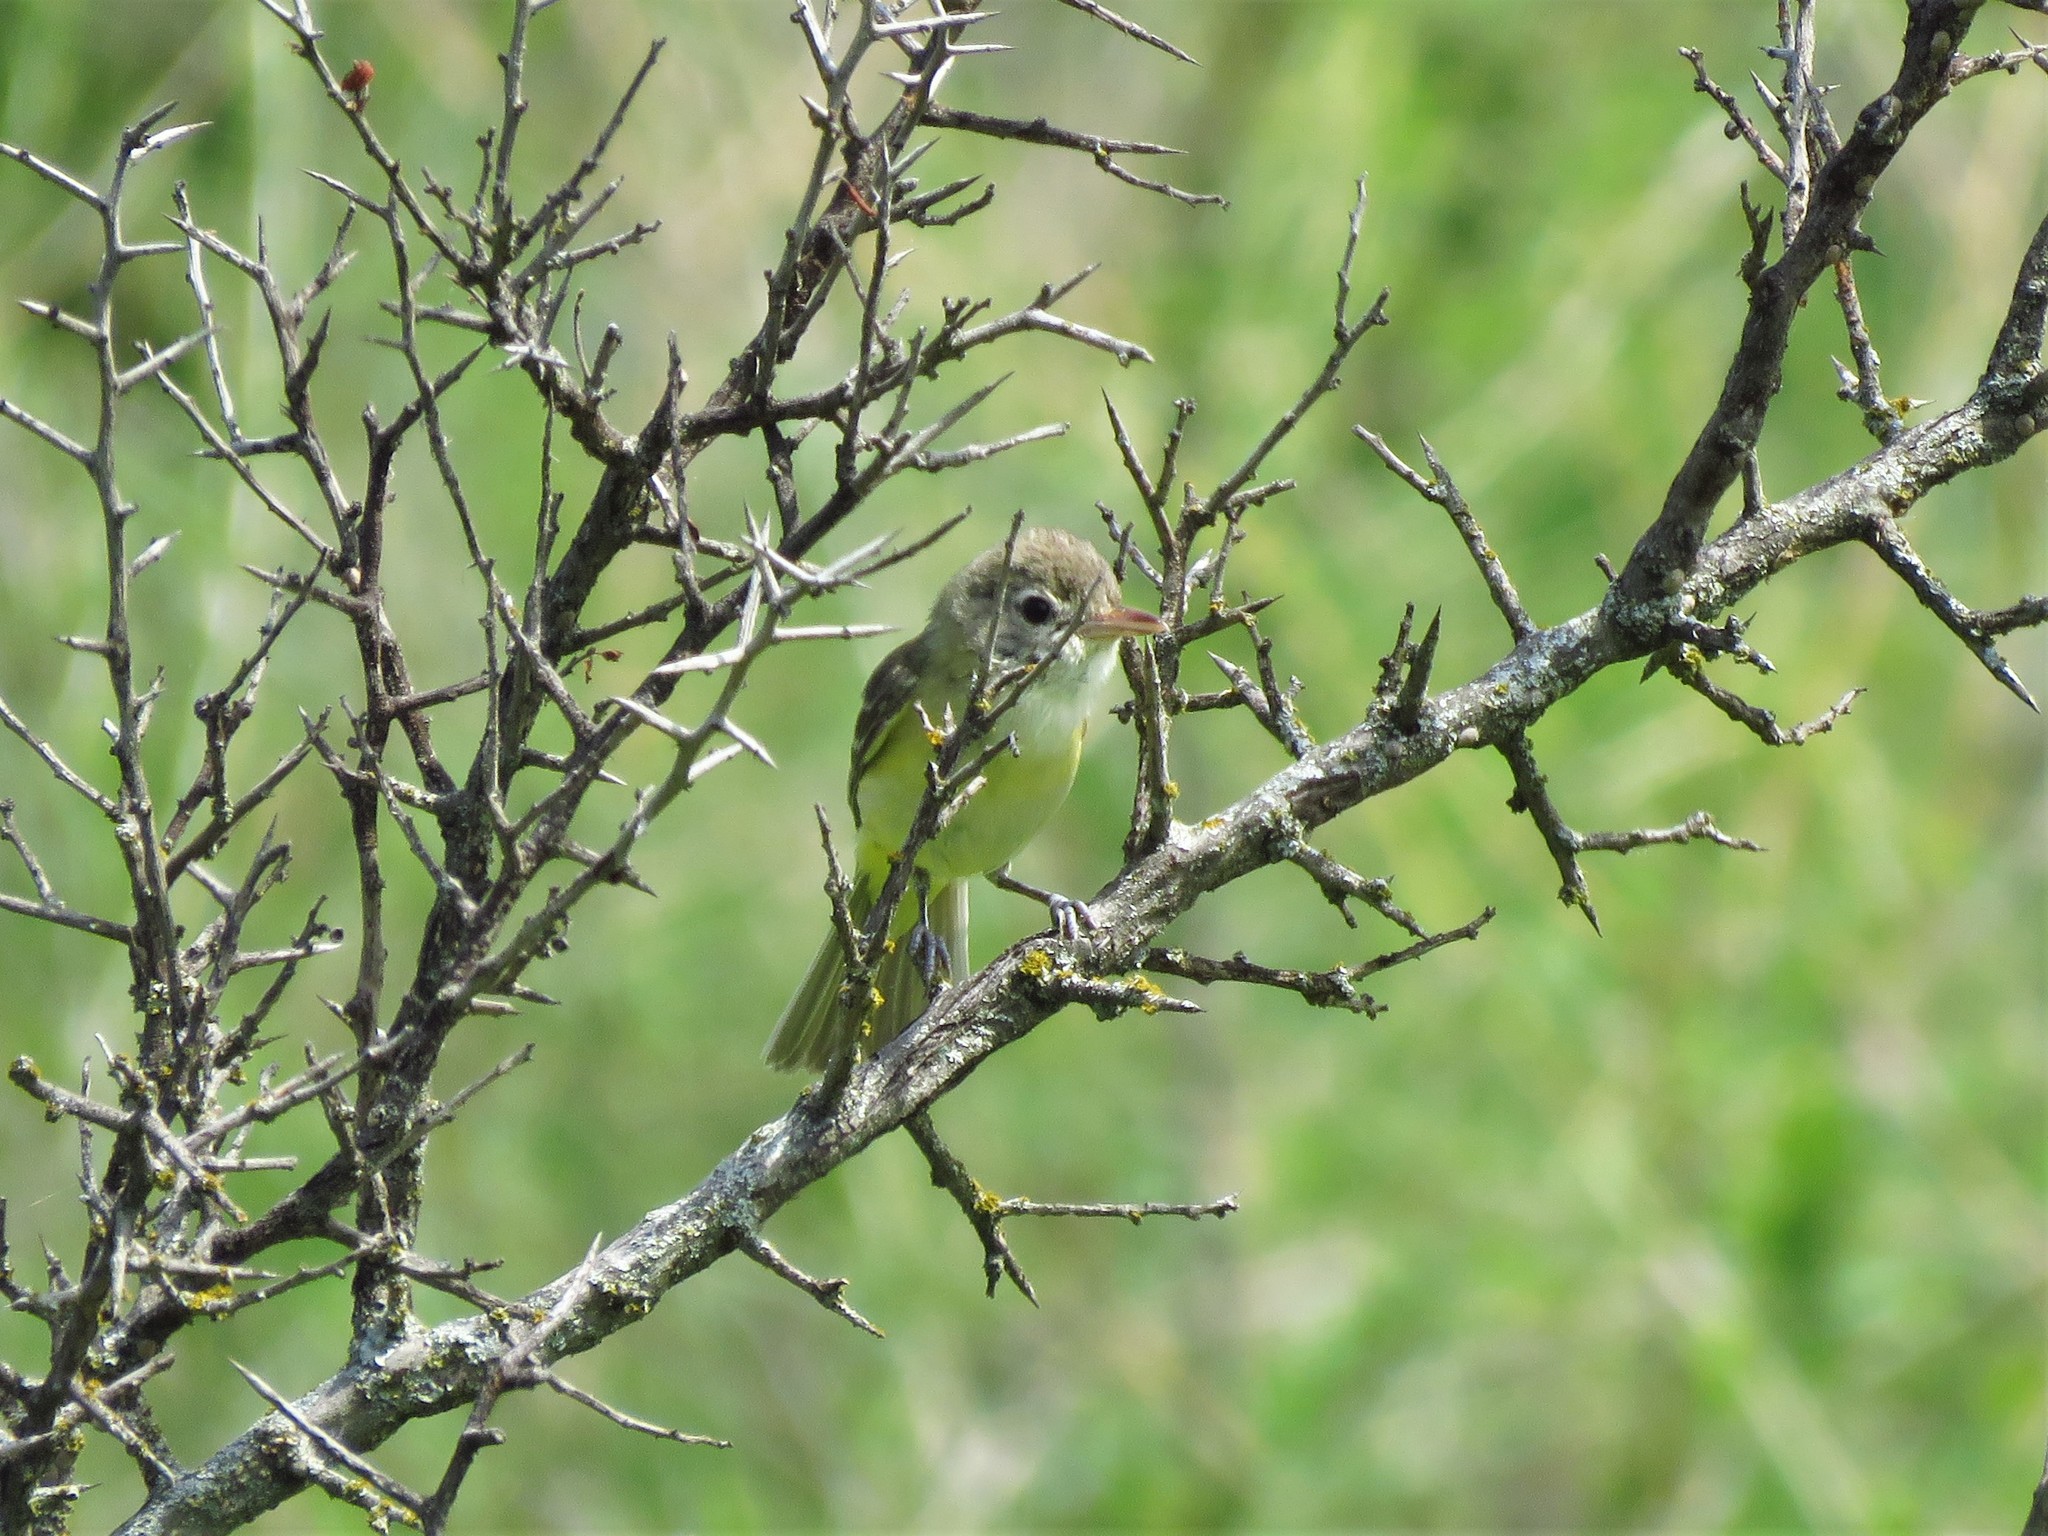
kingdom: Animalia
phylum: Chordata
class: Aves
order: Passeriformes
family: Vireonidae
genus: Vireo
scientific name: Vireo bellii
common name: Bell's vireo
